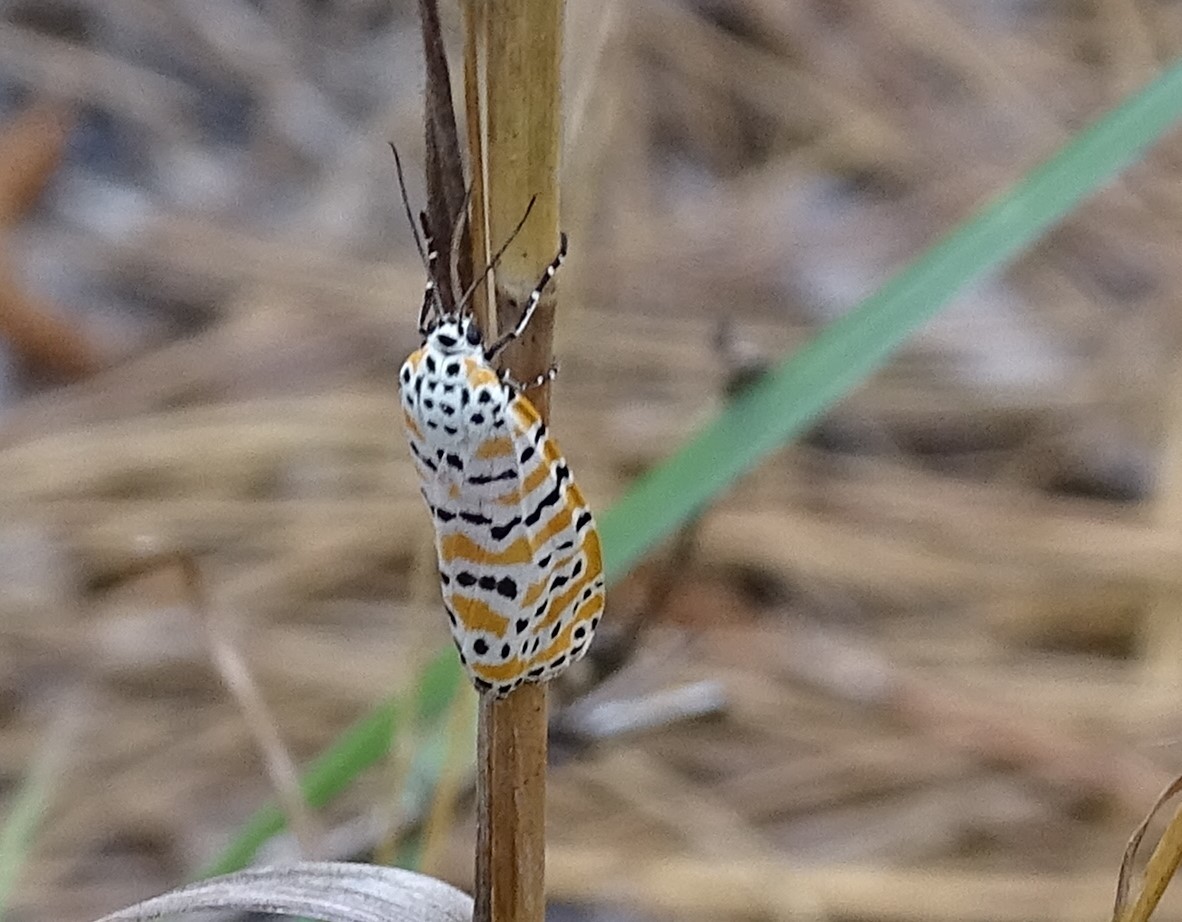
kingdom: Animalia
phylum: Arthropoda
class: Insecta
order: Lepidoptera
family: Erebidae
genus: Utetheisa
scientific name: Utetheisa ornatrix
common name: Beautiful utetheisa
